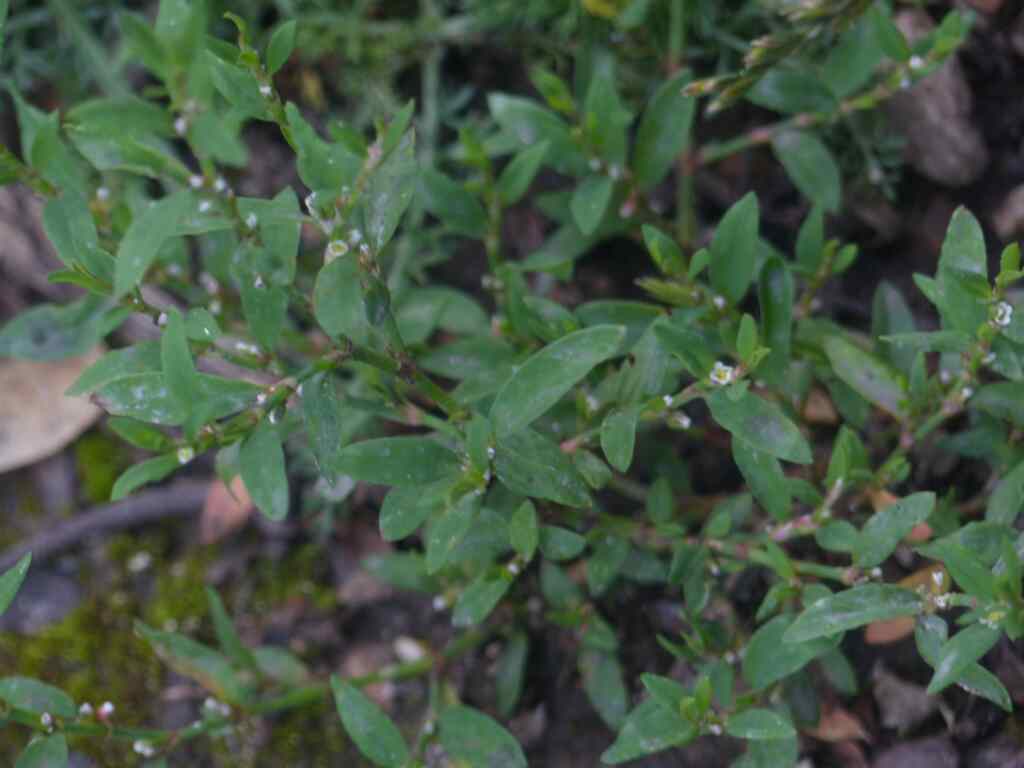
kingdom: Plantae
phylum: Tracheophyta
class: Magnoliopsida
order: Caryophyllales
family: Polygonaceae
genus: Polygonum
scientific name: Polygonum aviculare
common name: Prostrate knotweed
